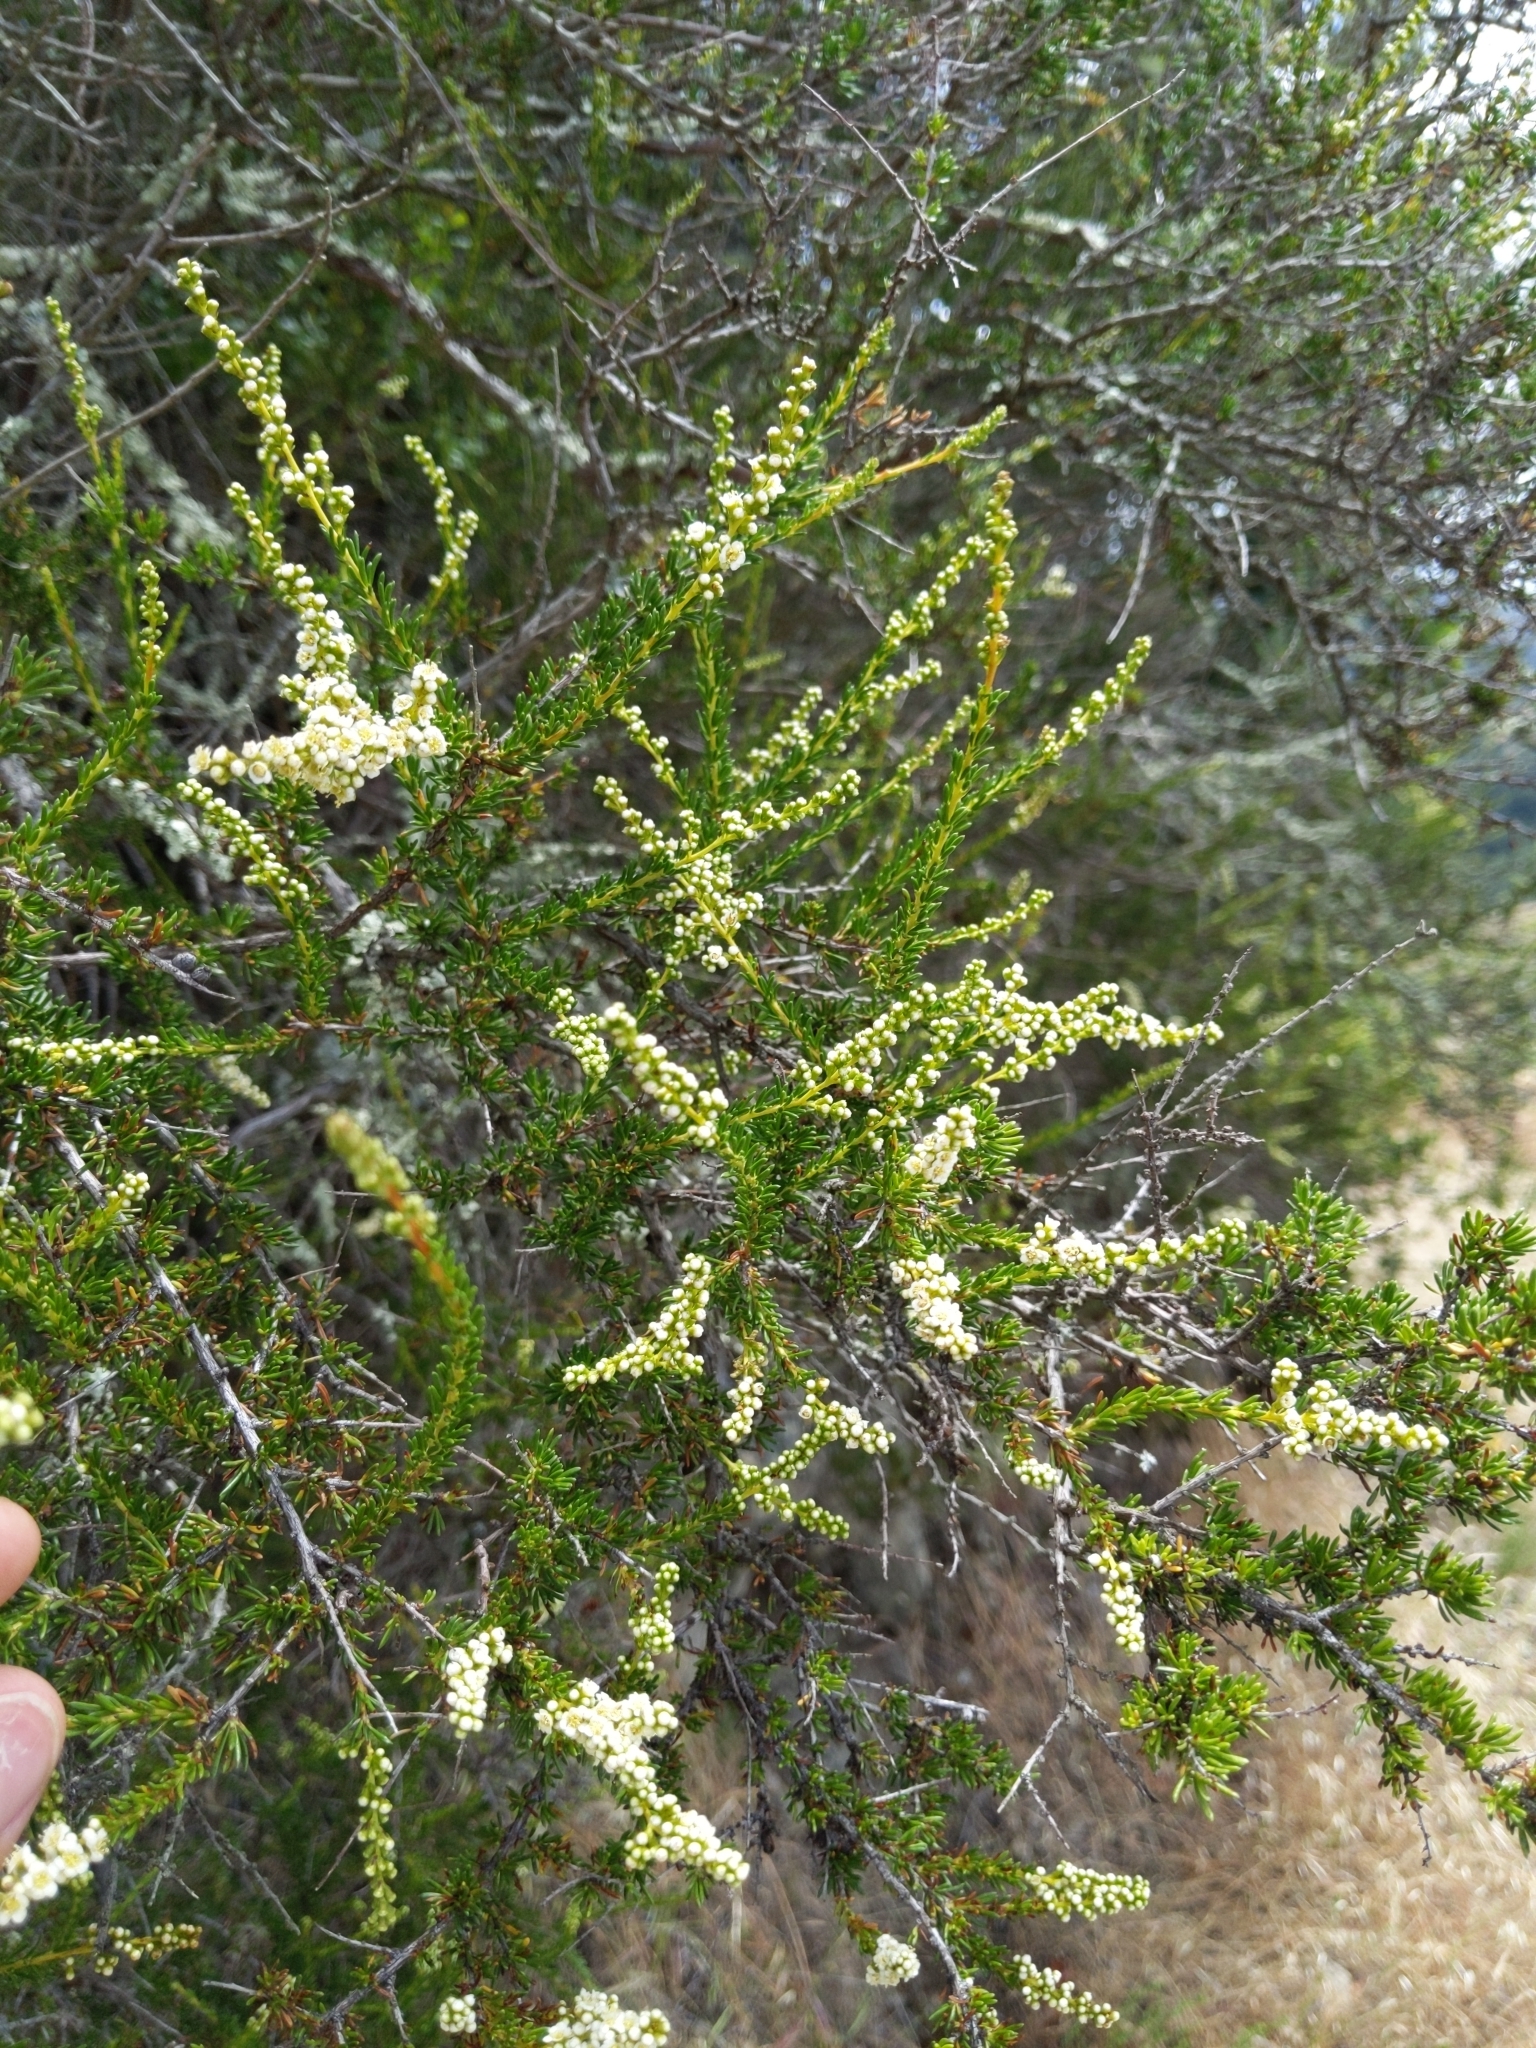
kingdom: Plantae
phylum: Tracheophyta
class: Magnoliopsida
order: Rosales
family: Rosaceae
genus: Adenostoma
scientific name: Adenostoma fasciculatum
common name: Chamise
